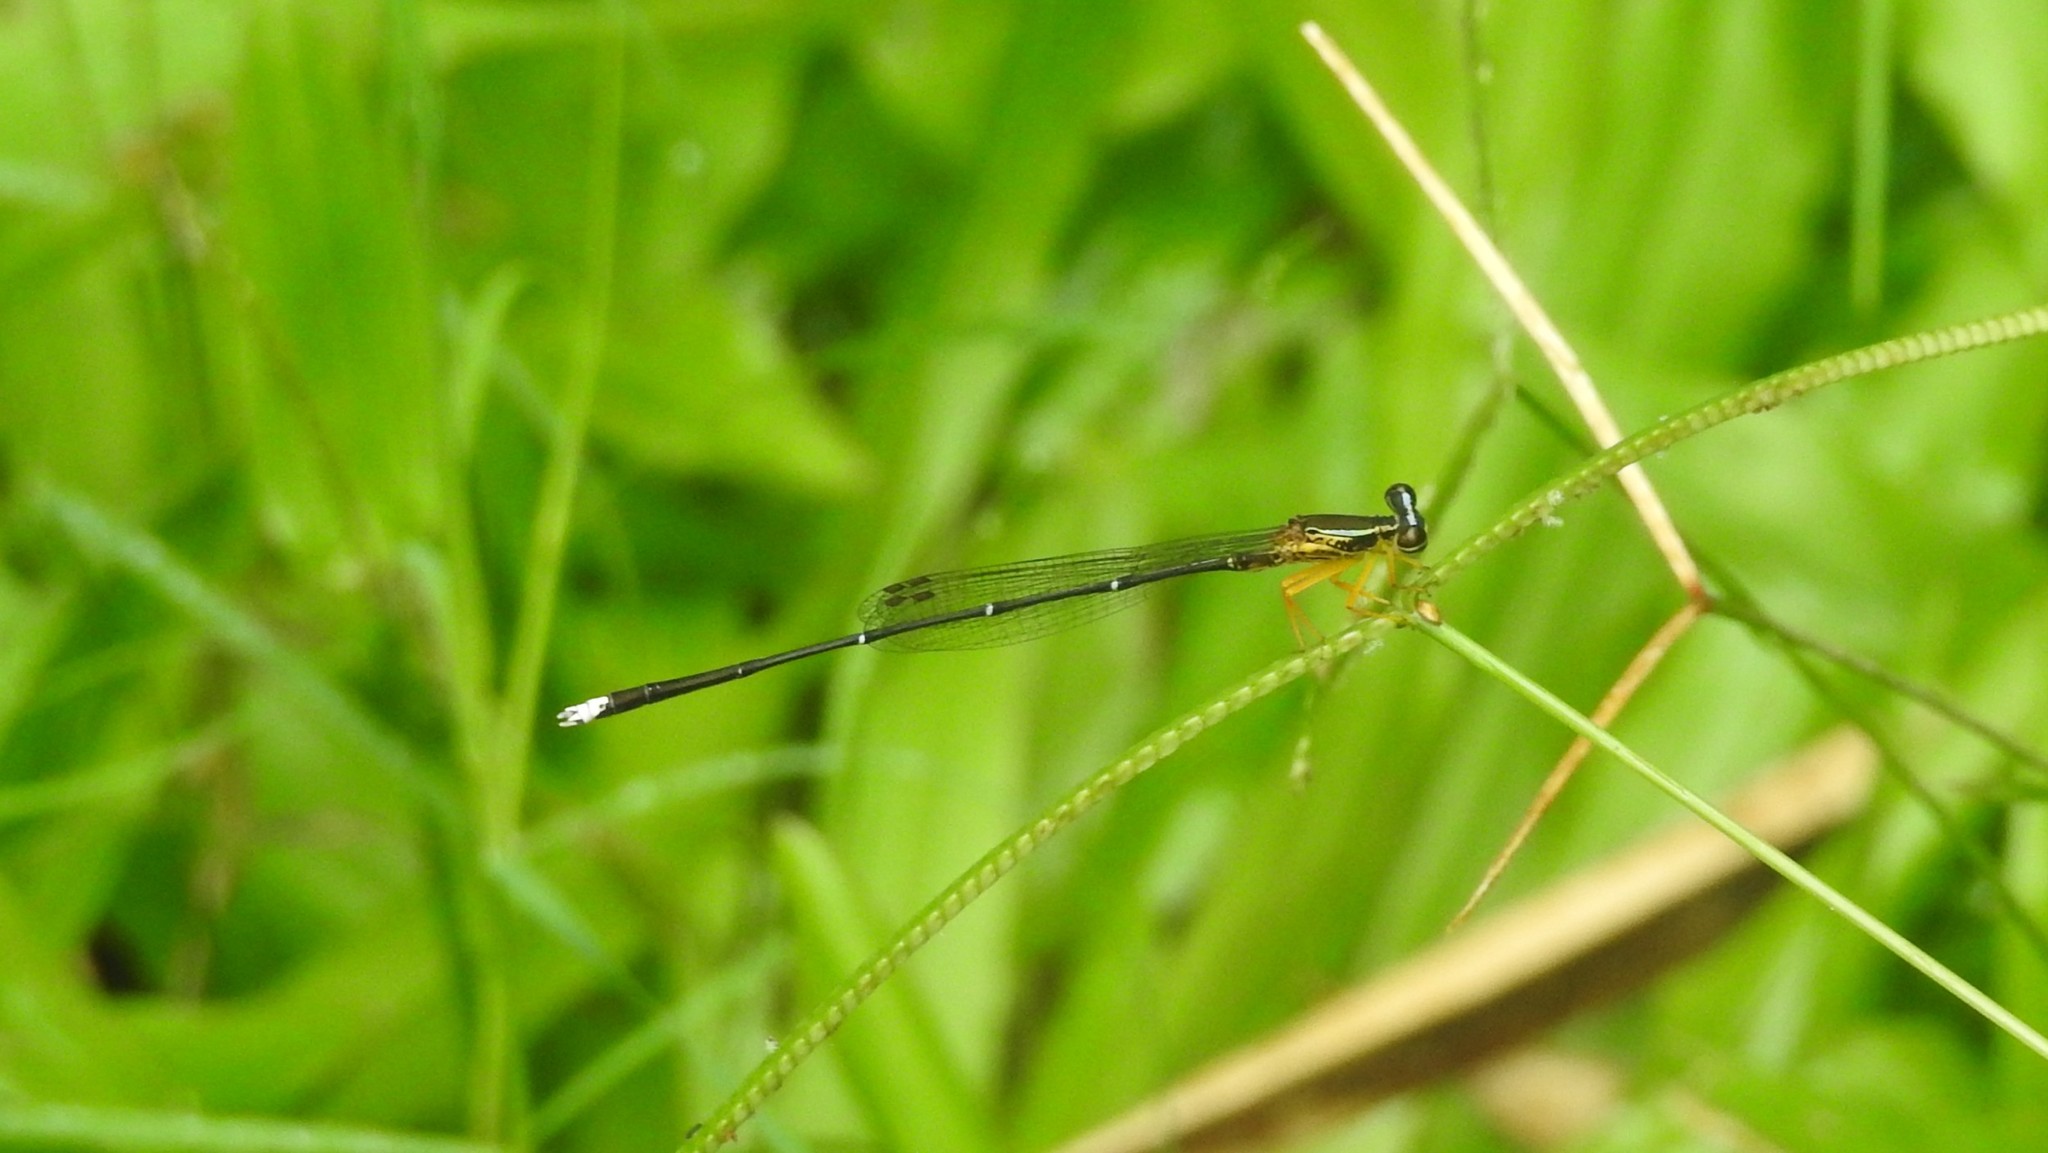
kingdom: Animalia
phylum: Arthropoda
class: Insecta
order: Odonata
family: Platycnemididae
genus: Copera
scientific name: Copera vittata
